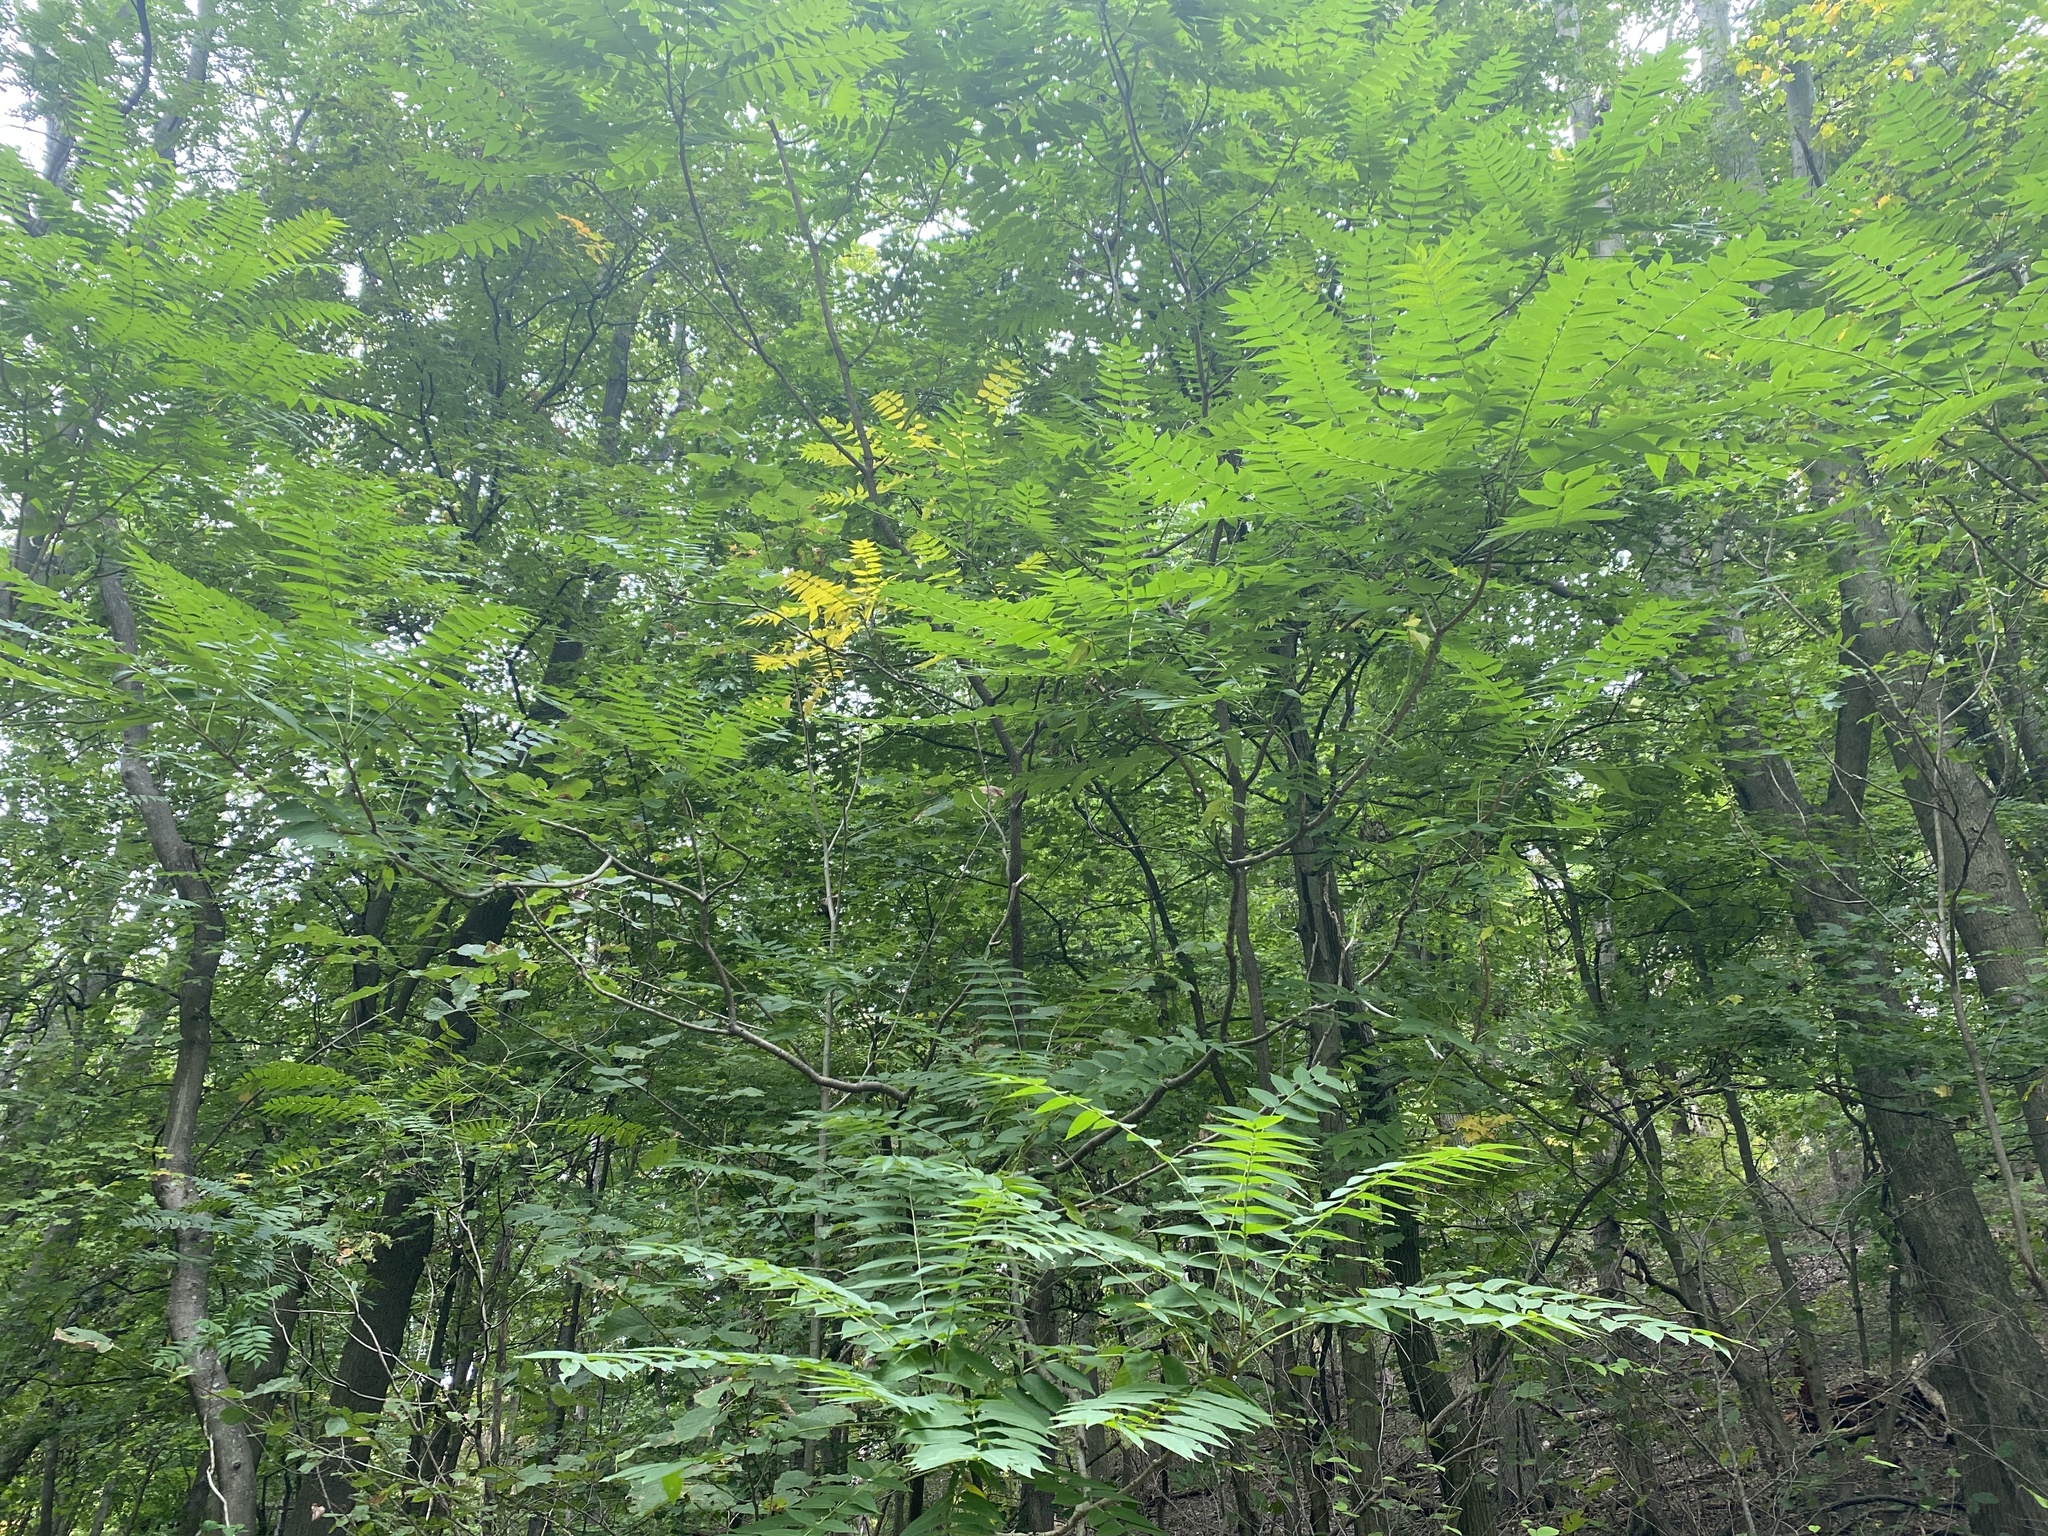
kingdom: Plantae
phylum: Tracheophyta
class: Magnoliopsida
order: Sapindales
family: Simaroubaceae
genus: Ailanthus
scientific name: Ailanthus altissima
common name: Tree-of-heaven
